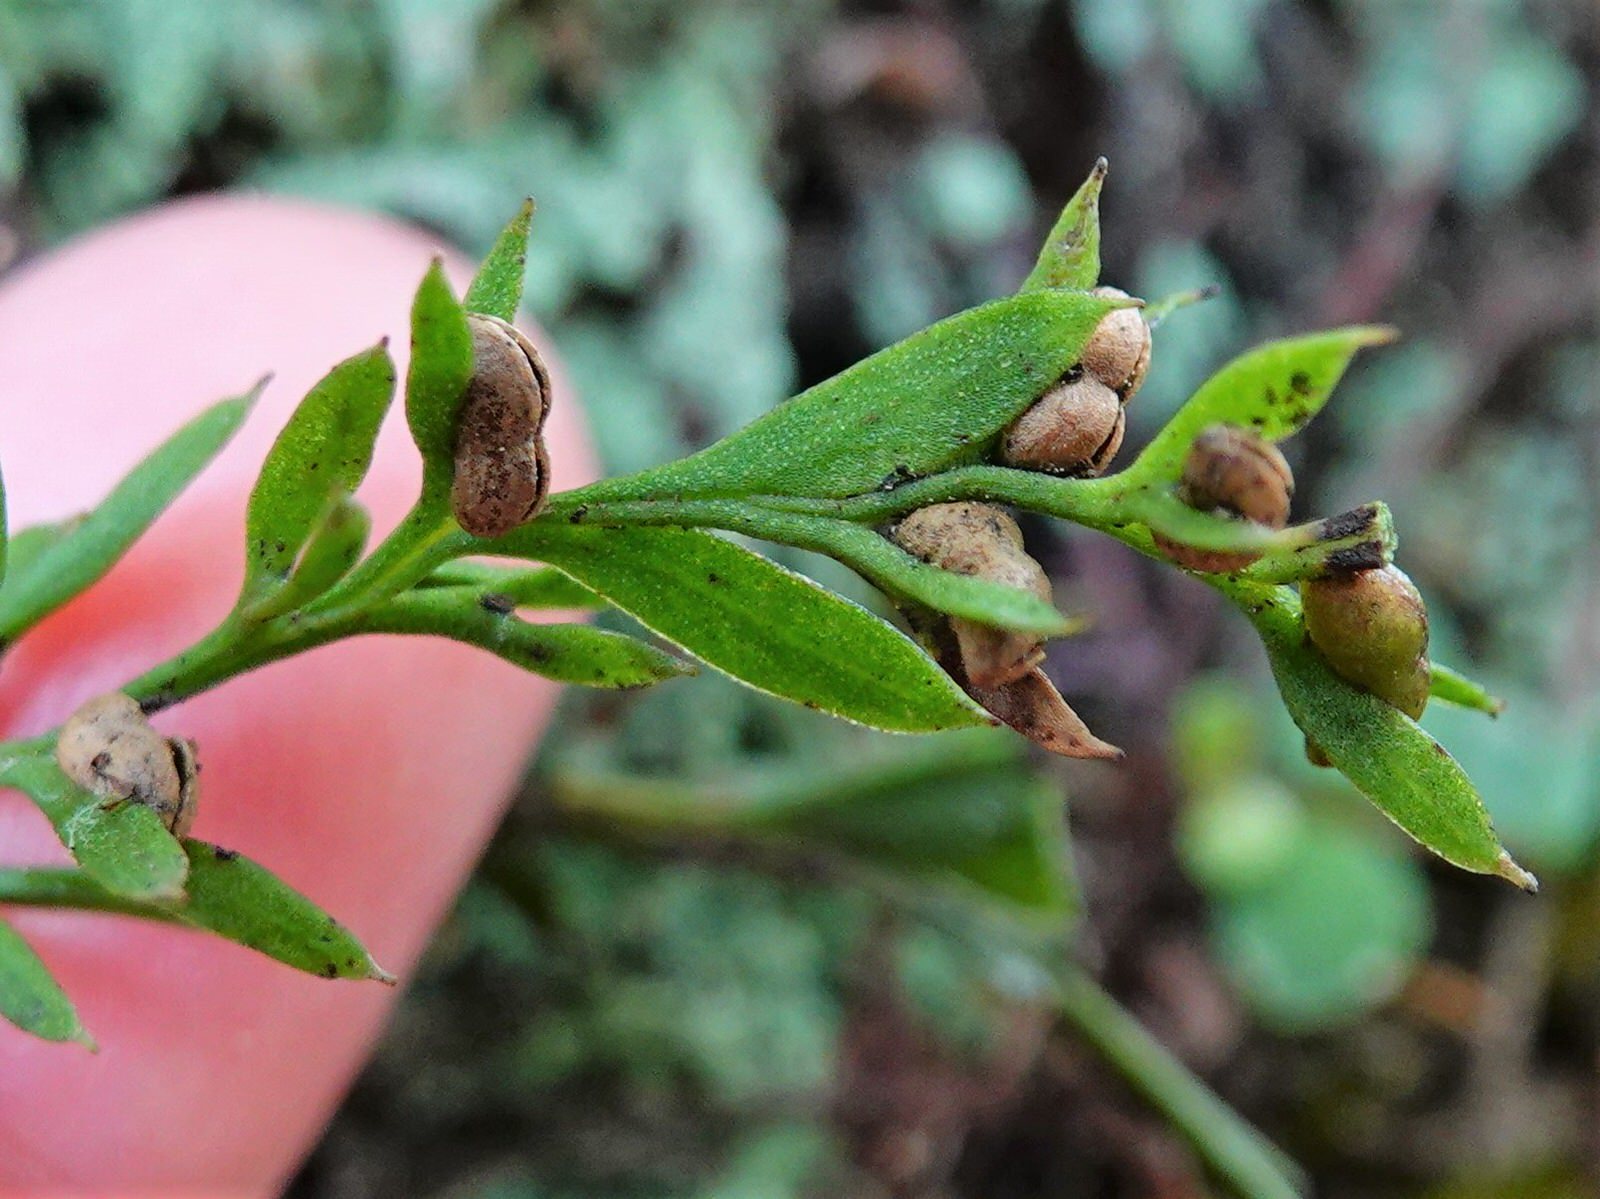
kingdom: Plantae
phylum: Tracheophyta
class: Polypodiopsida
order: Psilotales
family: Psilotaceae
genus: Tmesipteris
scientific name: Tmesipteris elongata
